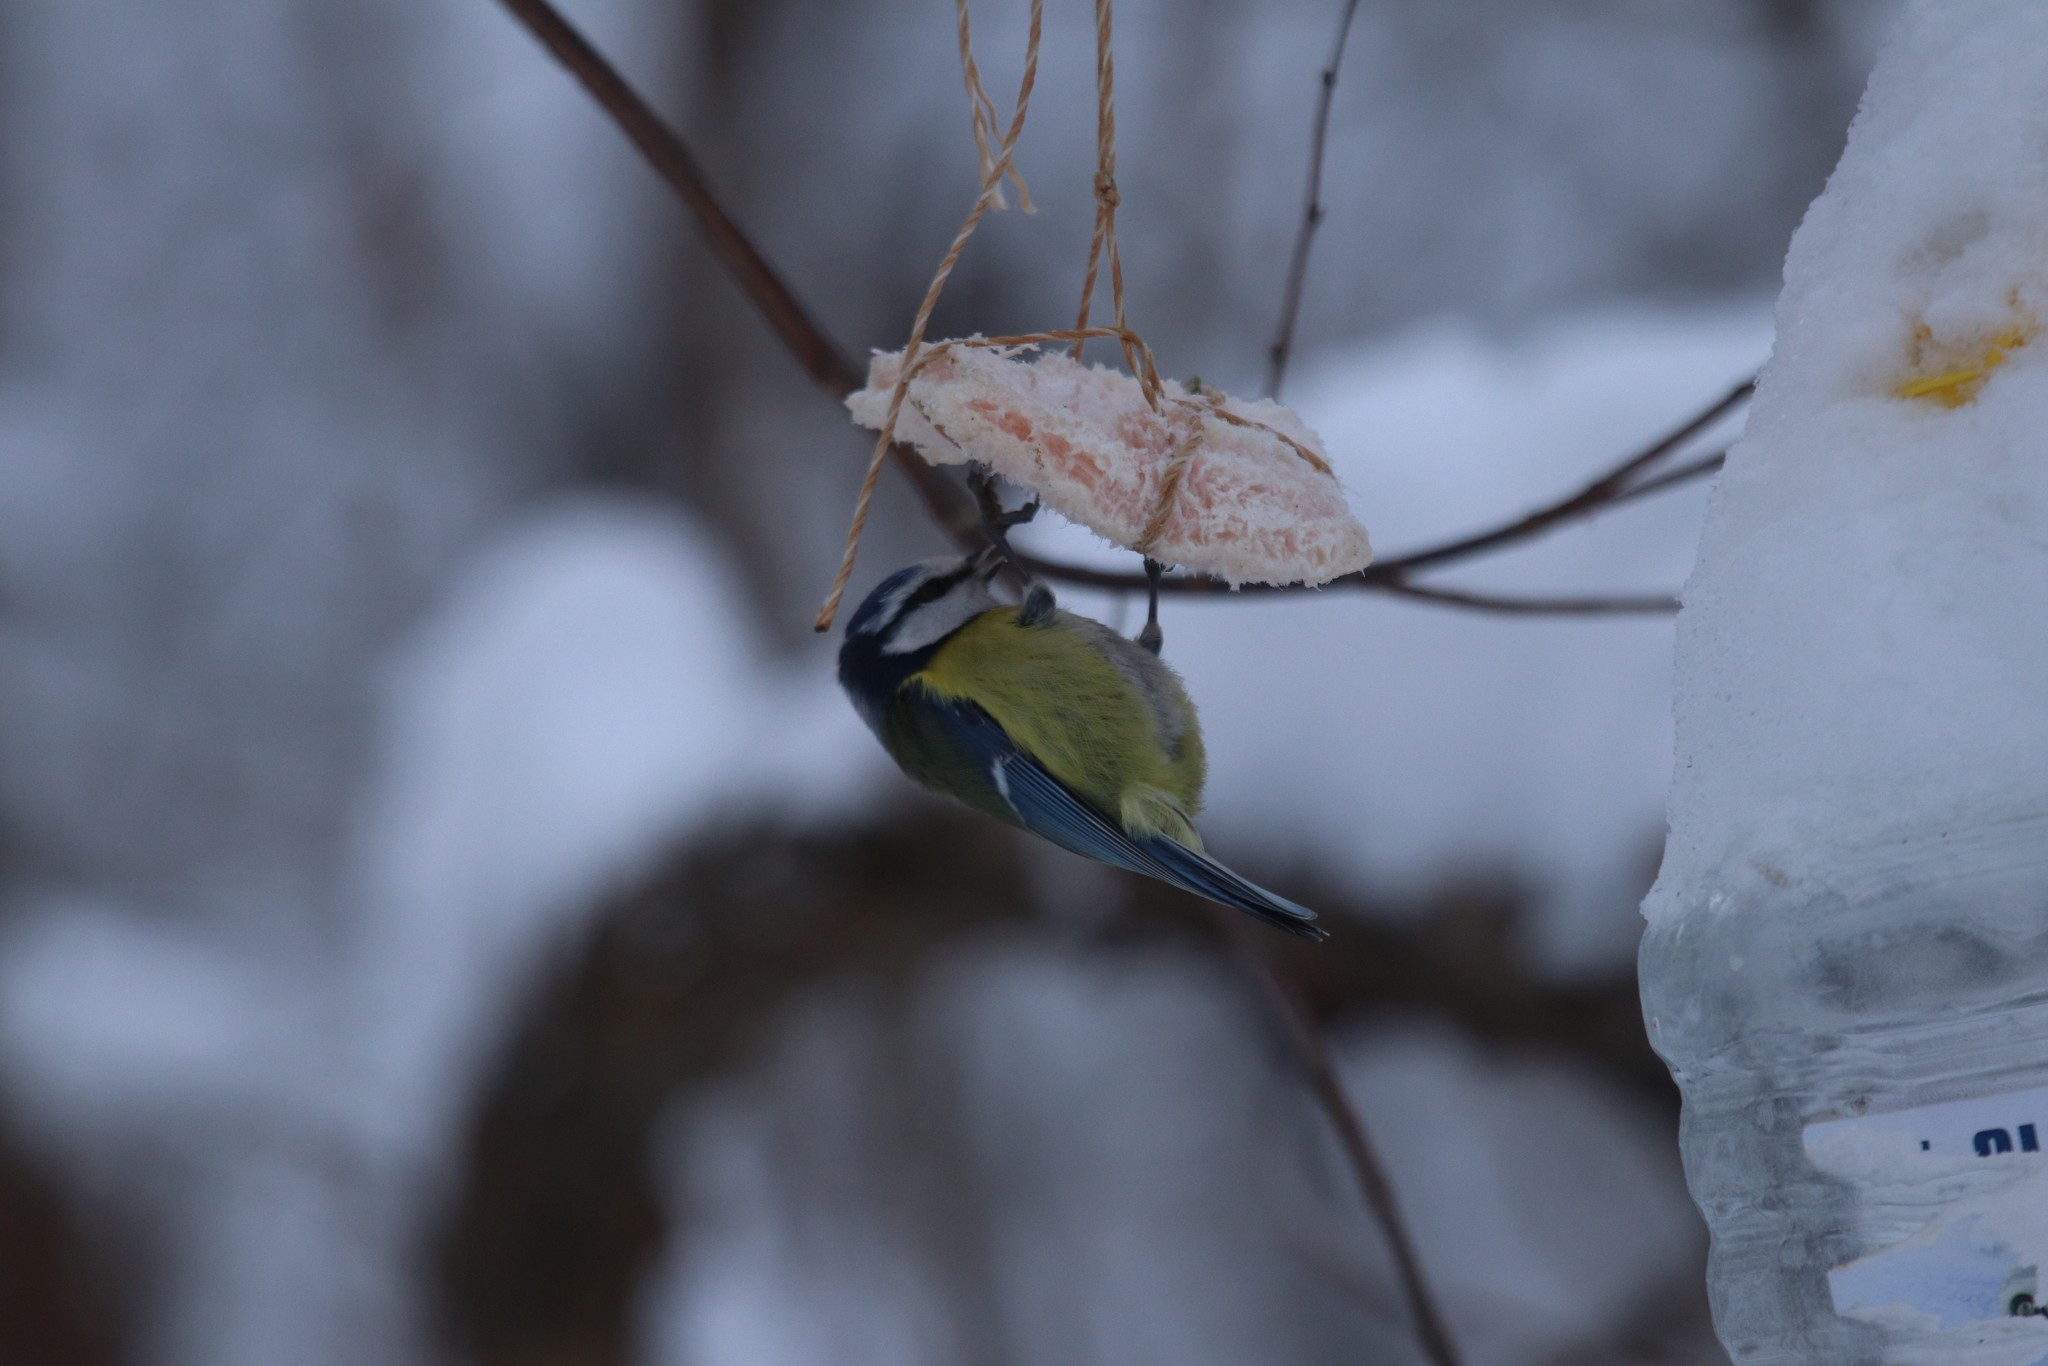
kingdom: Animalia
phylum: Chordata
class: Aves
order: Passeriformes
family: Paridae
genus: Cyanistes
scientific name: Cyanistes caeruleus
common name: Eurasian blue tit
